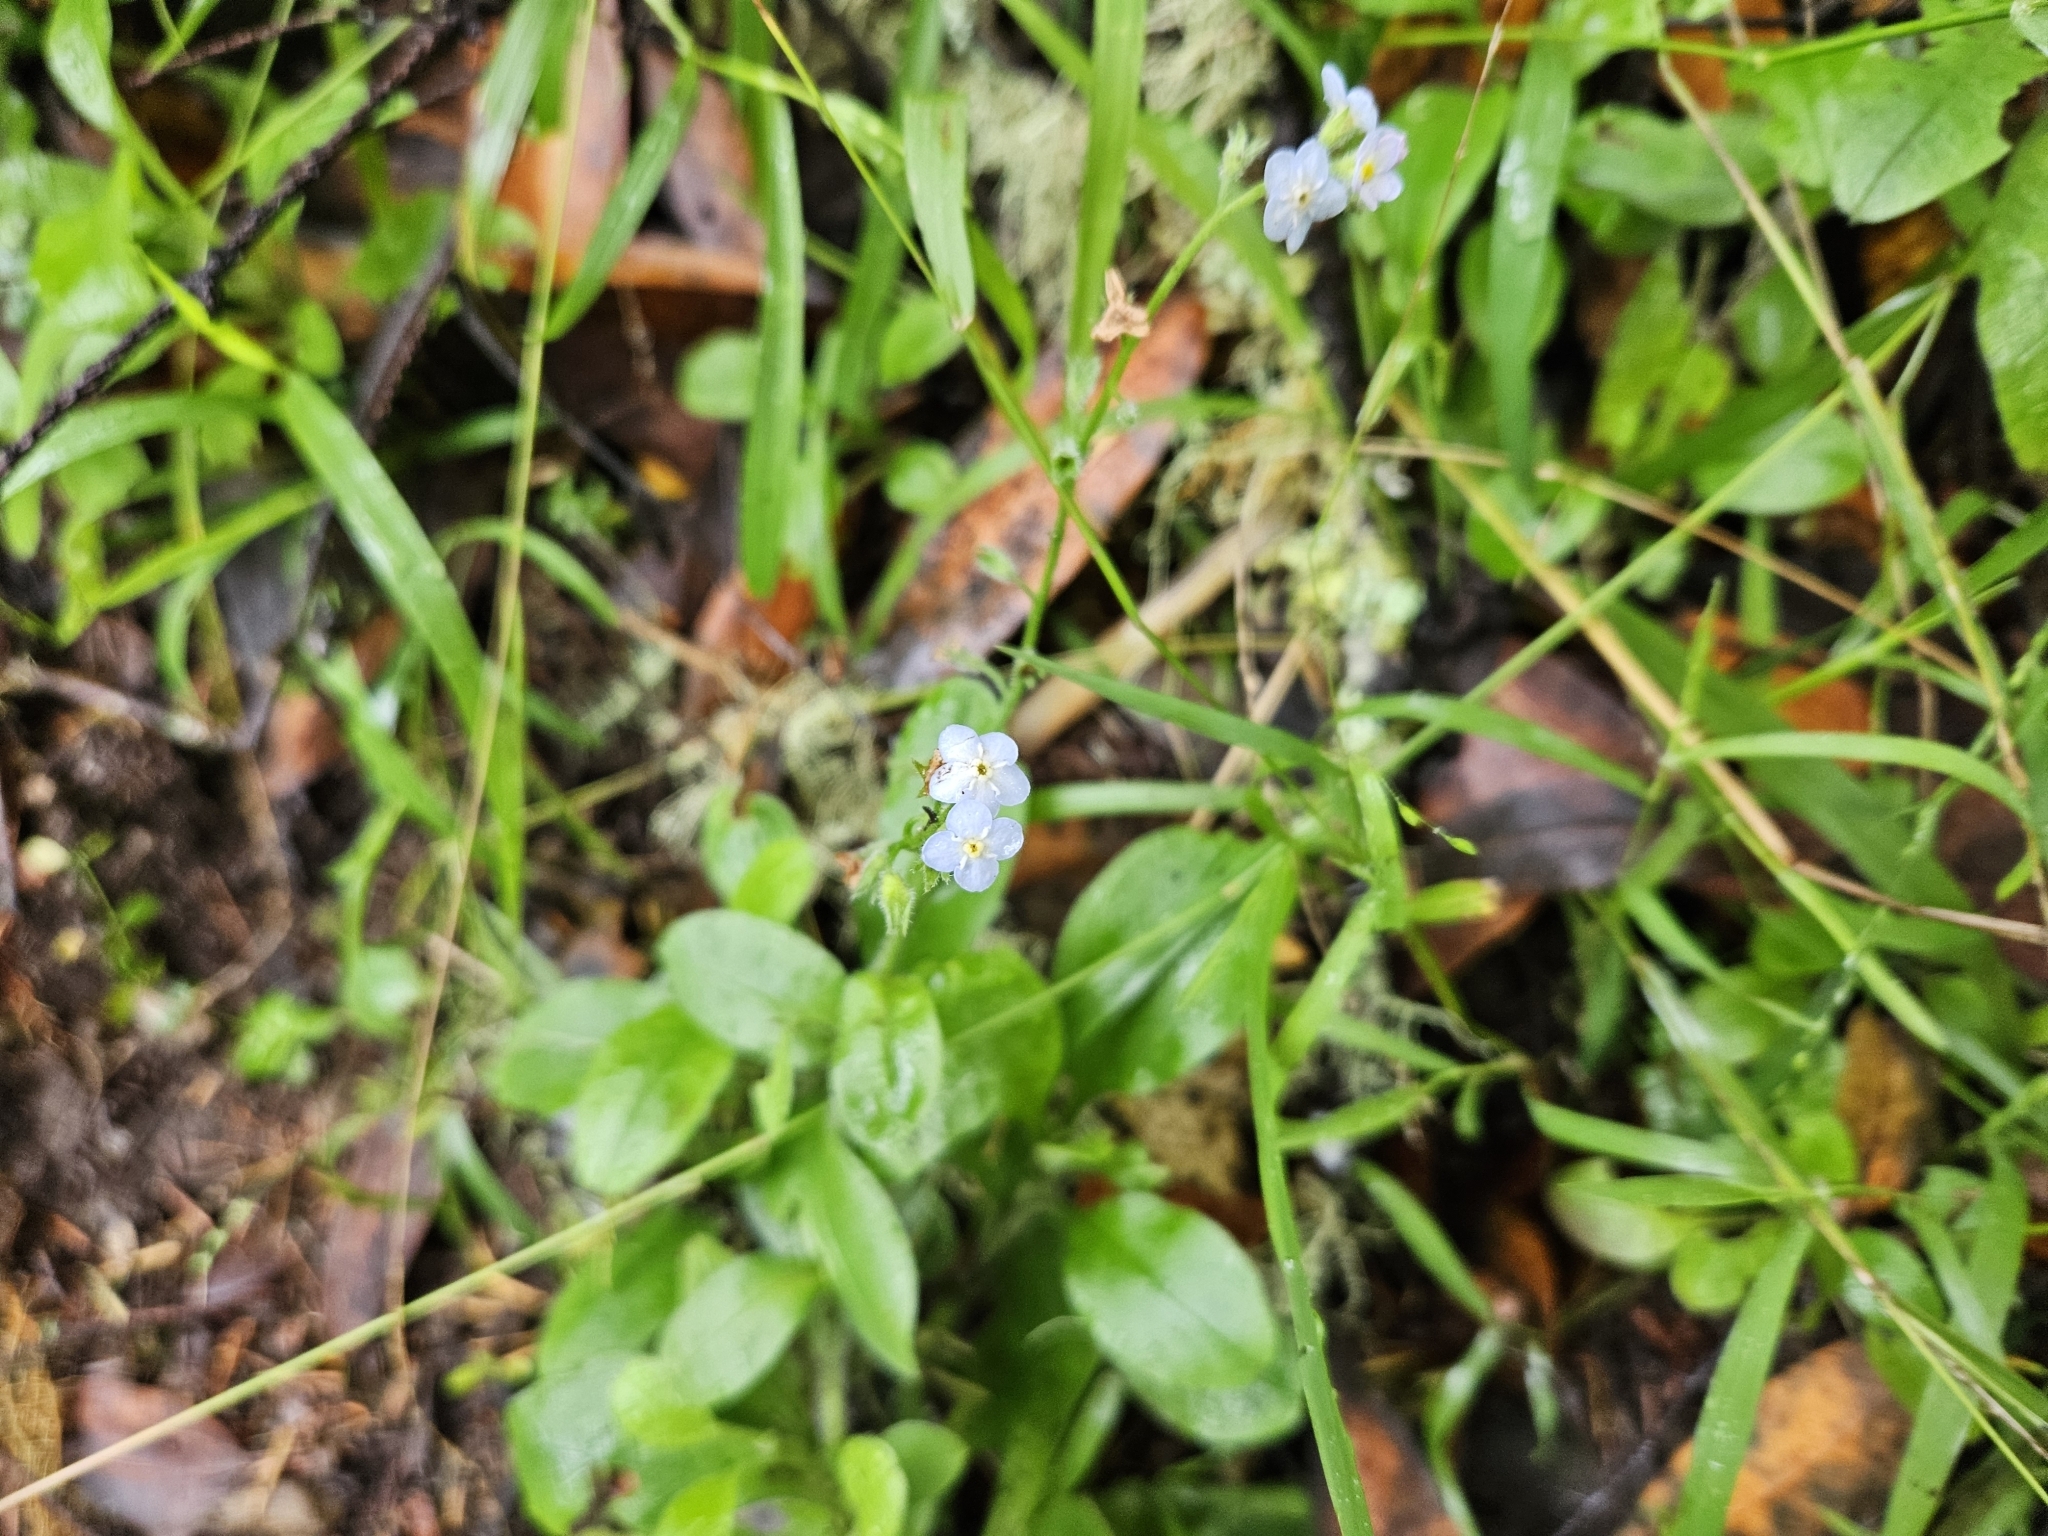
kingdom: Plantae
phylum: Tracheophyta
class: Magnoliopsida
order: Boraginales
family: Boraginaceae
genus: Myosotis
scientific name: Myosotis latifolia
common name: Broadleaf forget-me-not
